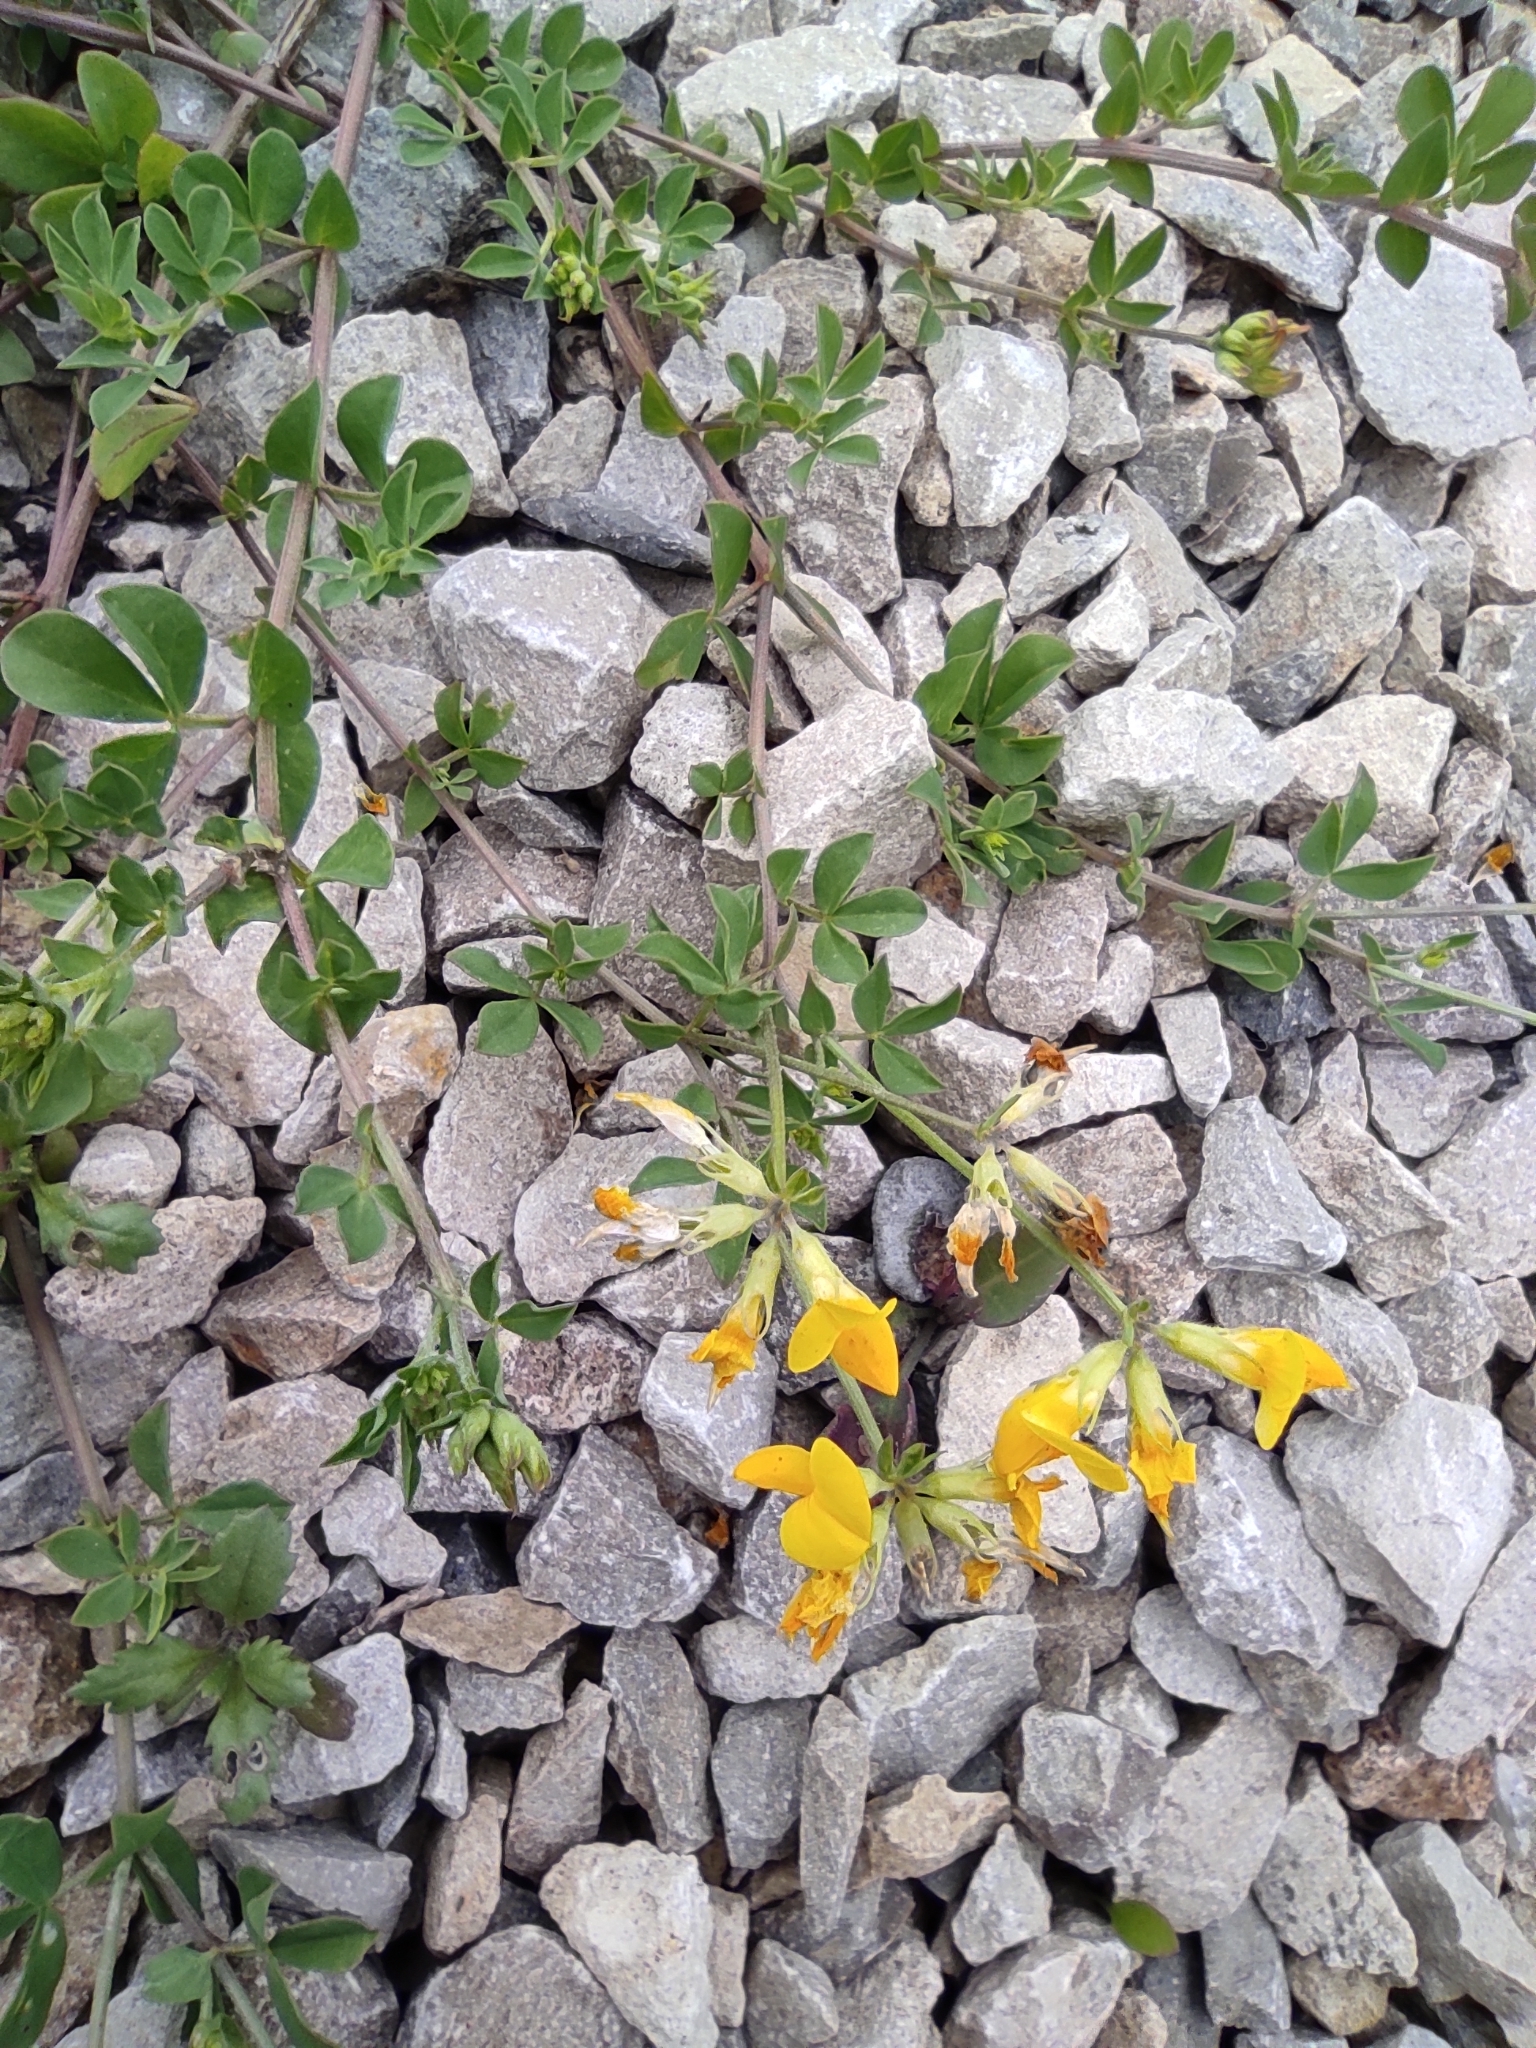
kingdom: Plantae
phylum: Tracheophyta
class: Magnoliopsida
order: Fabales
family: Fabaceae
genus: Lotus
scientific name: Lotus corniculatus
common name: Common bird's-foot-trefoil
